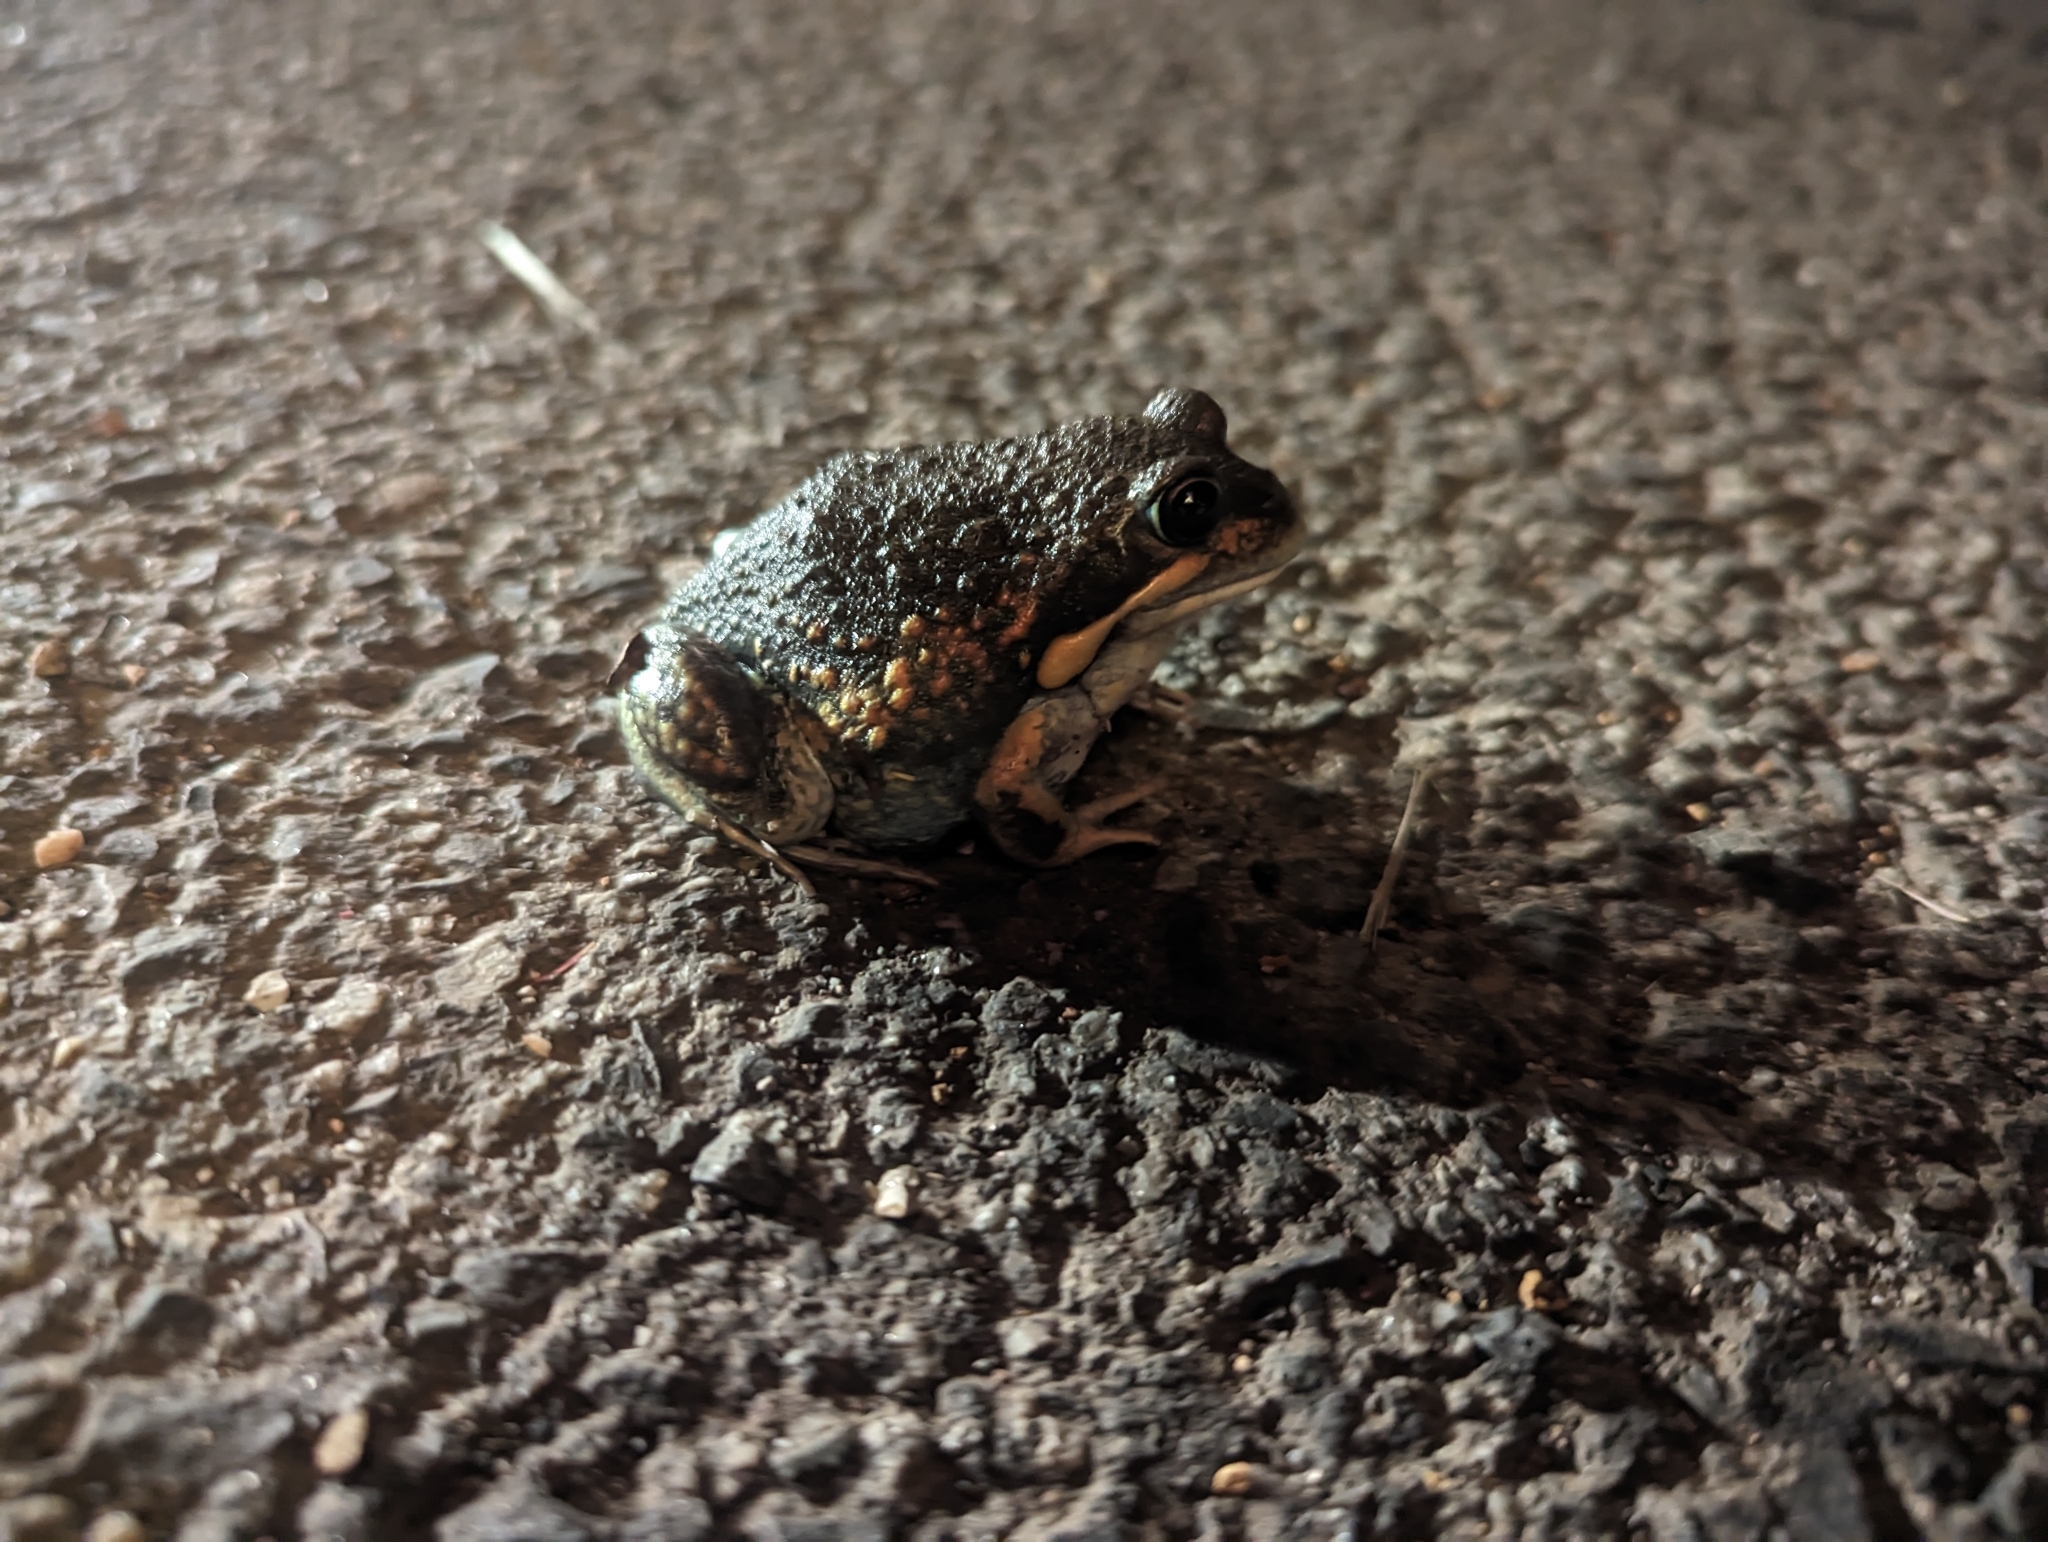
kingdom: Animalia
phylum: Chordata
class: Amphibia
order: Anura
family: Limnodynastidae
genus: Limnodynastes
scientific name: Limnodynastes dumerilii
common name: Banjo frog
